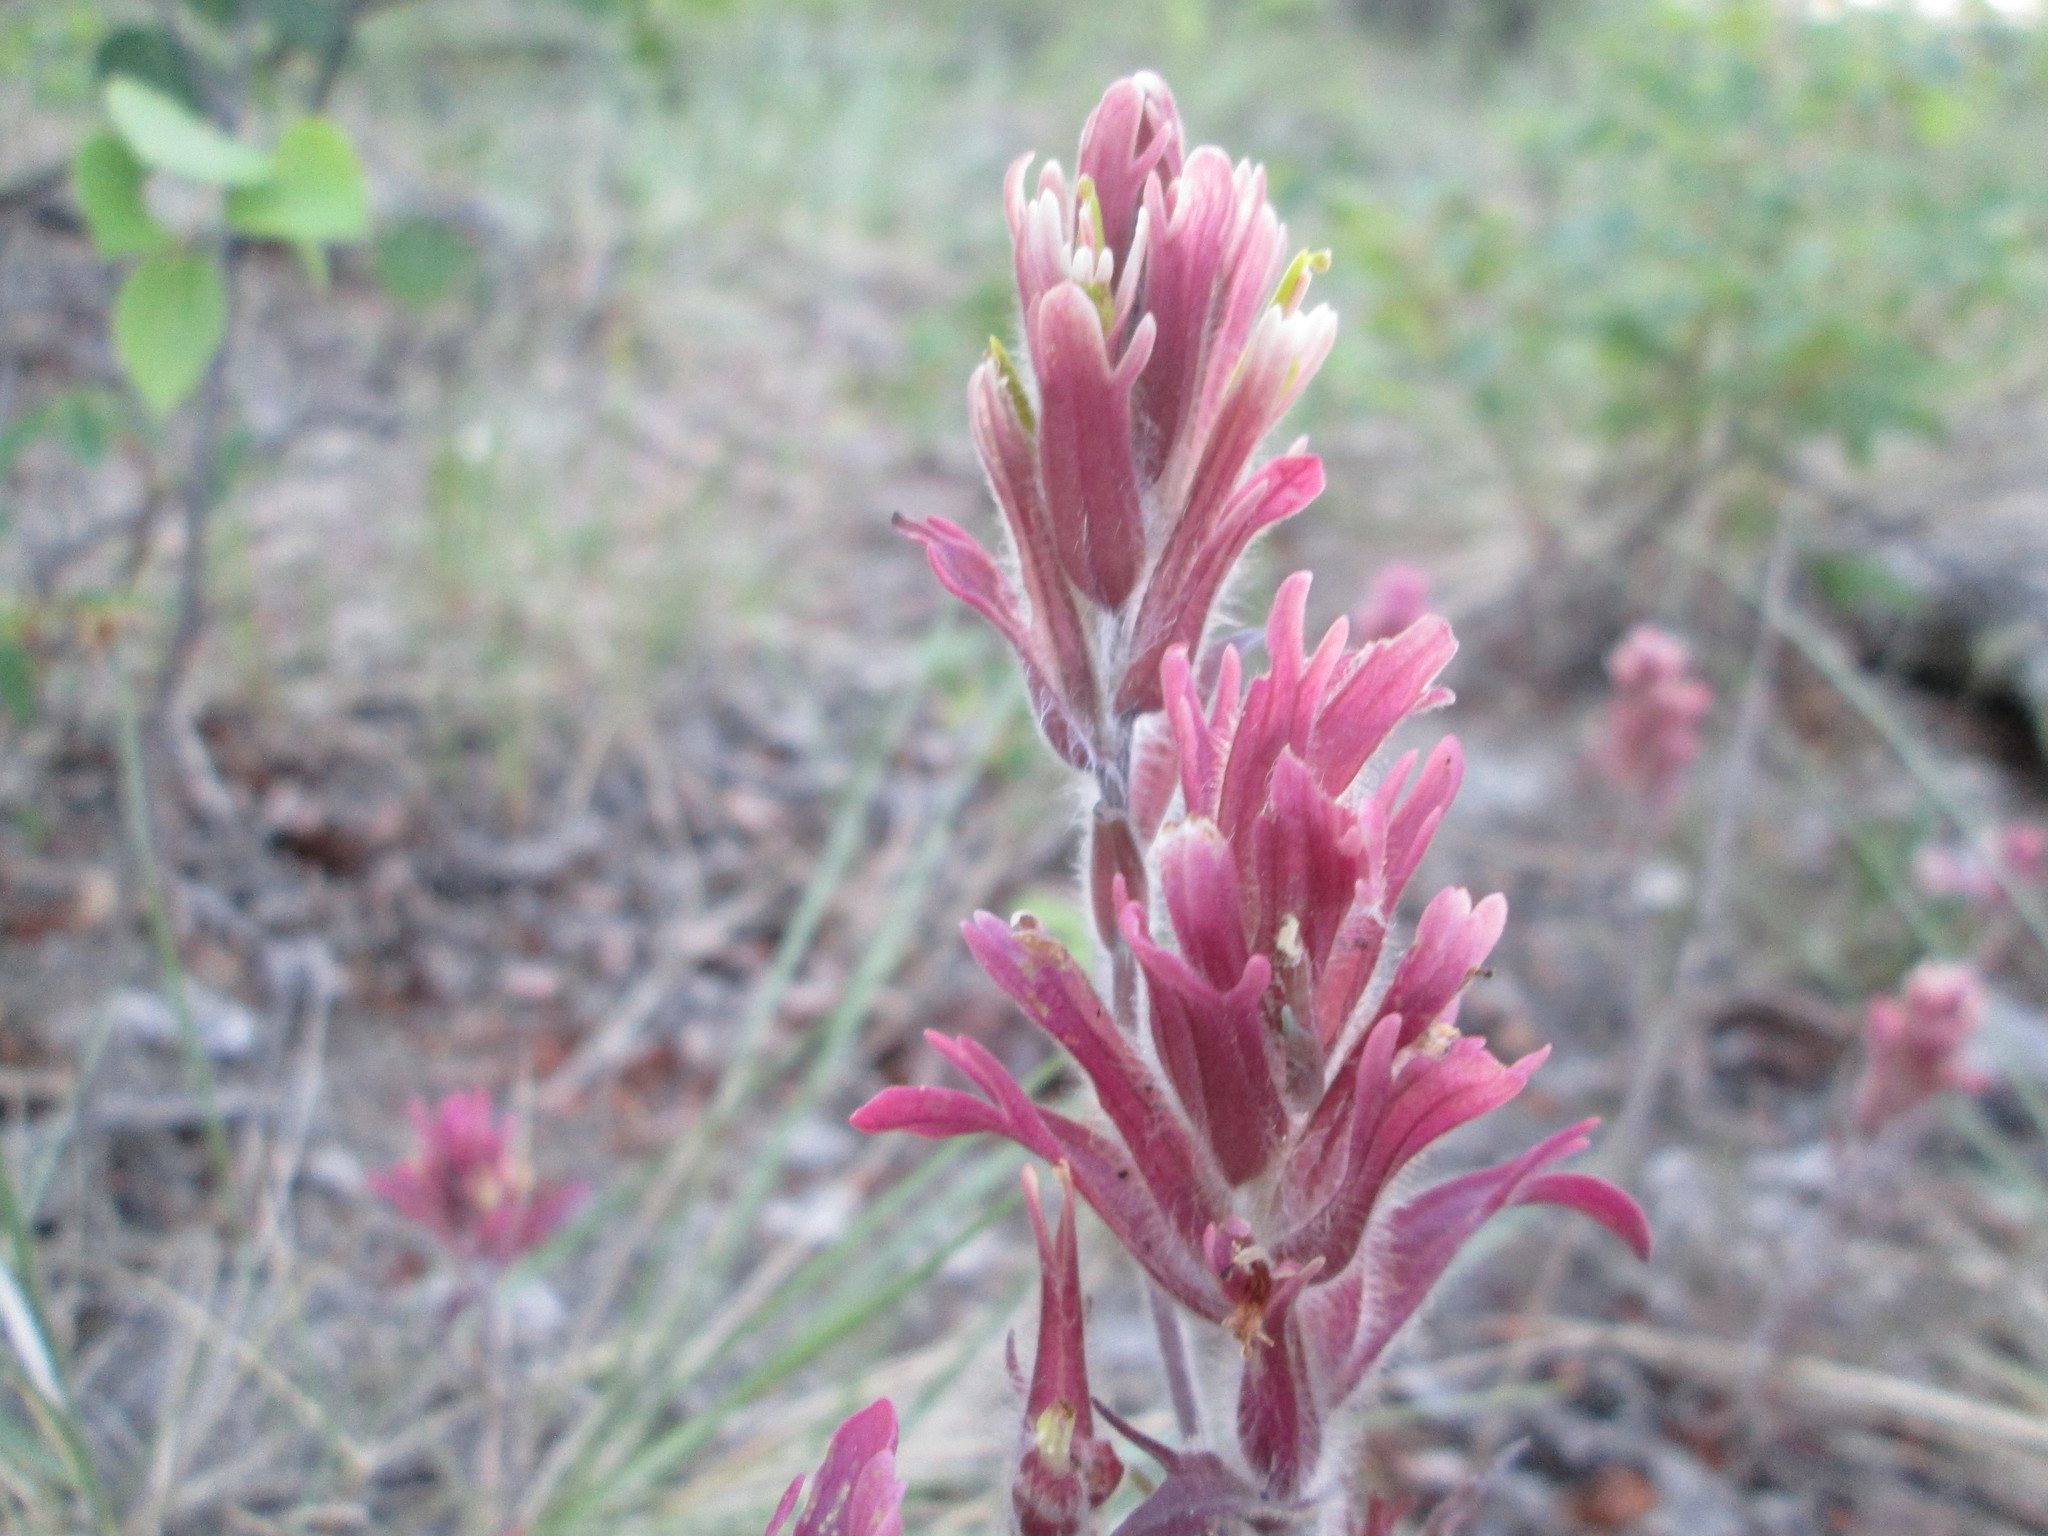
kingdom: Plantae
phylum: Tracheophyta
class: Magnoliopsida
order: Lamiales
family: Orobanchaceae
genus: Castilleja
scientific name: Castilleja raupii
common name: Raup's paintbrush
